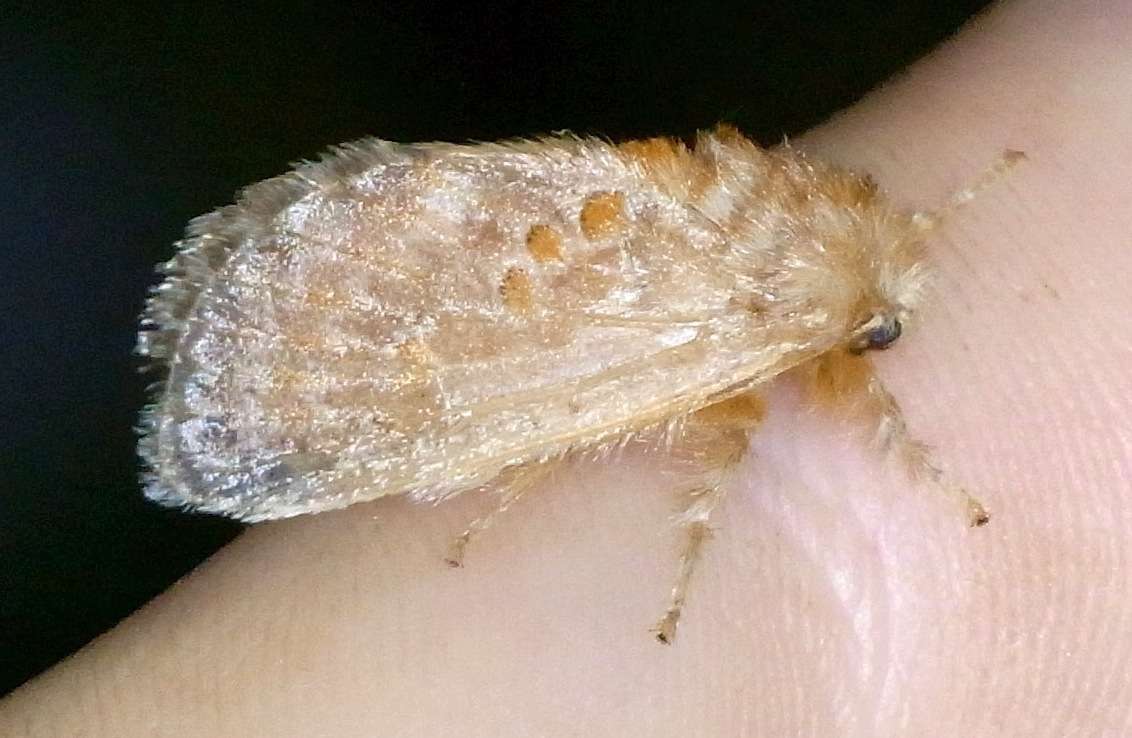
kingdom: Animalia
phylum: Arthropoda
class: Insecta
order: Lepidoptera
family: Limacodidae
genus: Pseudanapaea
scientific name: Pseudanapaea transvestita
